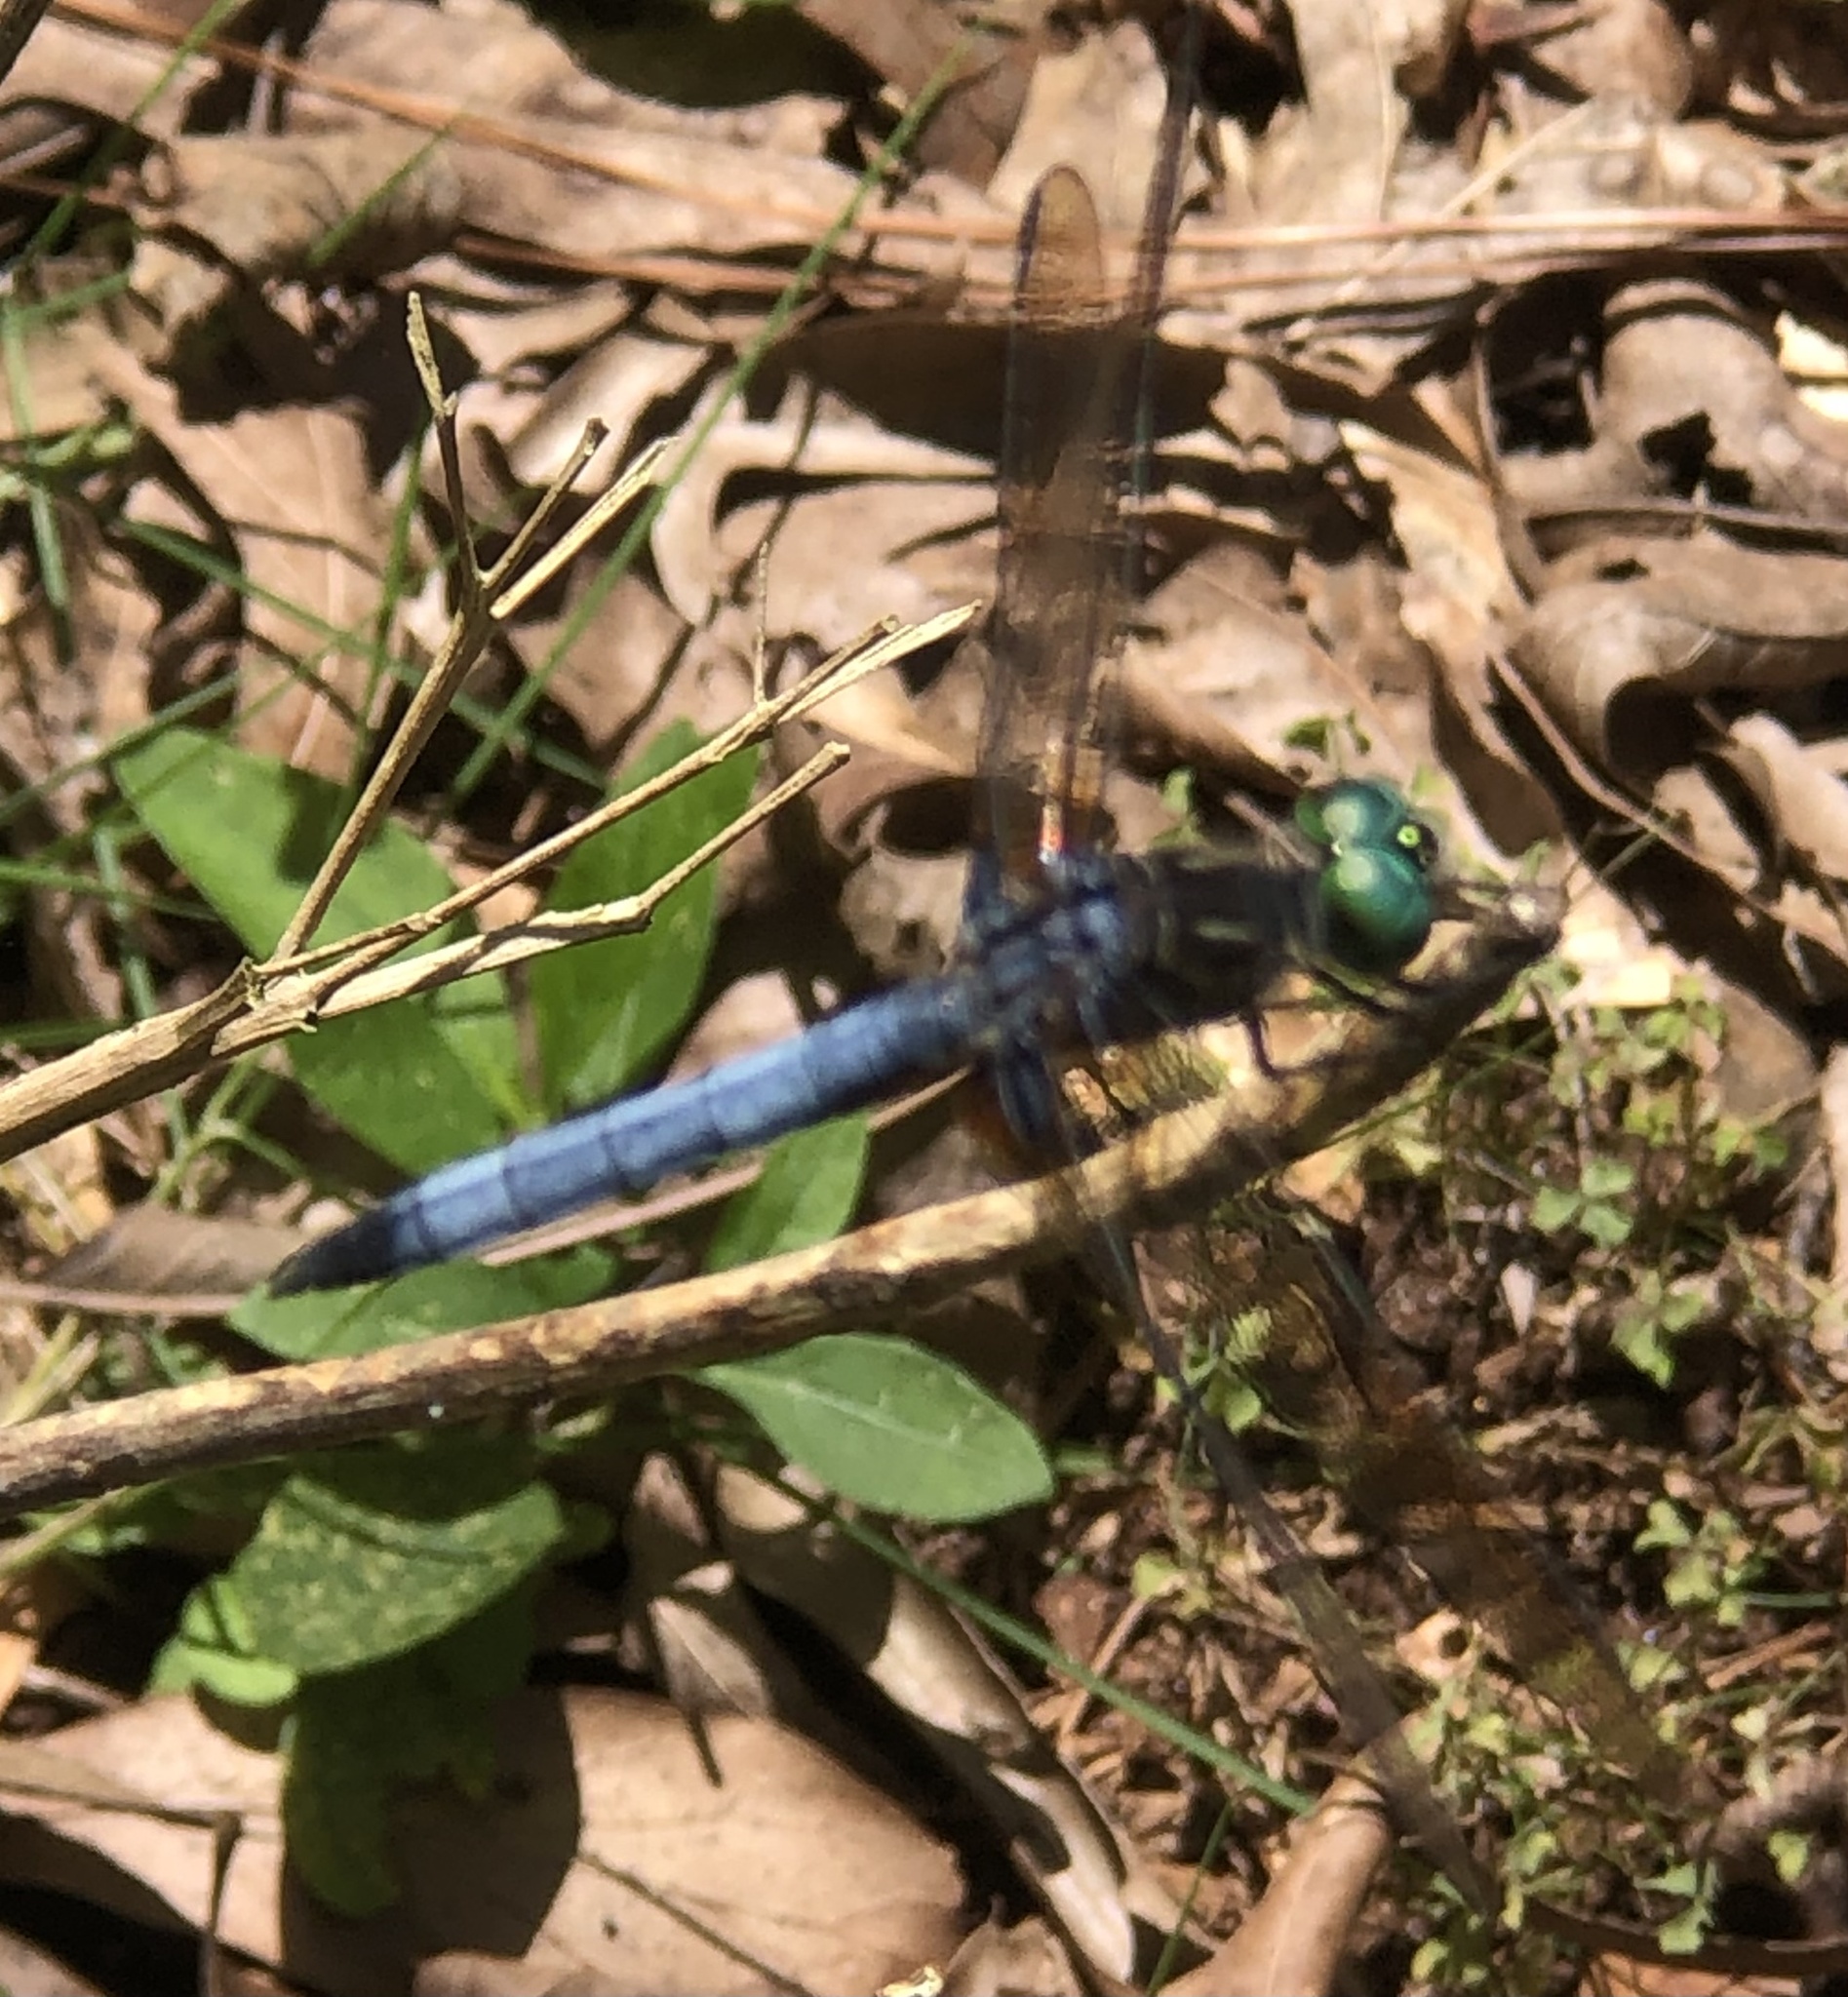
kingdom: Animalia
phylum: Arthropoda
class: Insecta
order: Odonata
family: Libellulidae
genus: Pachydiplax
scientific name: Pachydiplax longipennis
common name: Blue dasher
